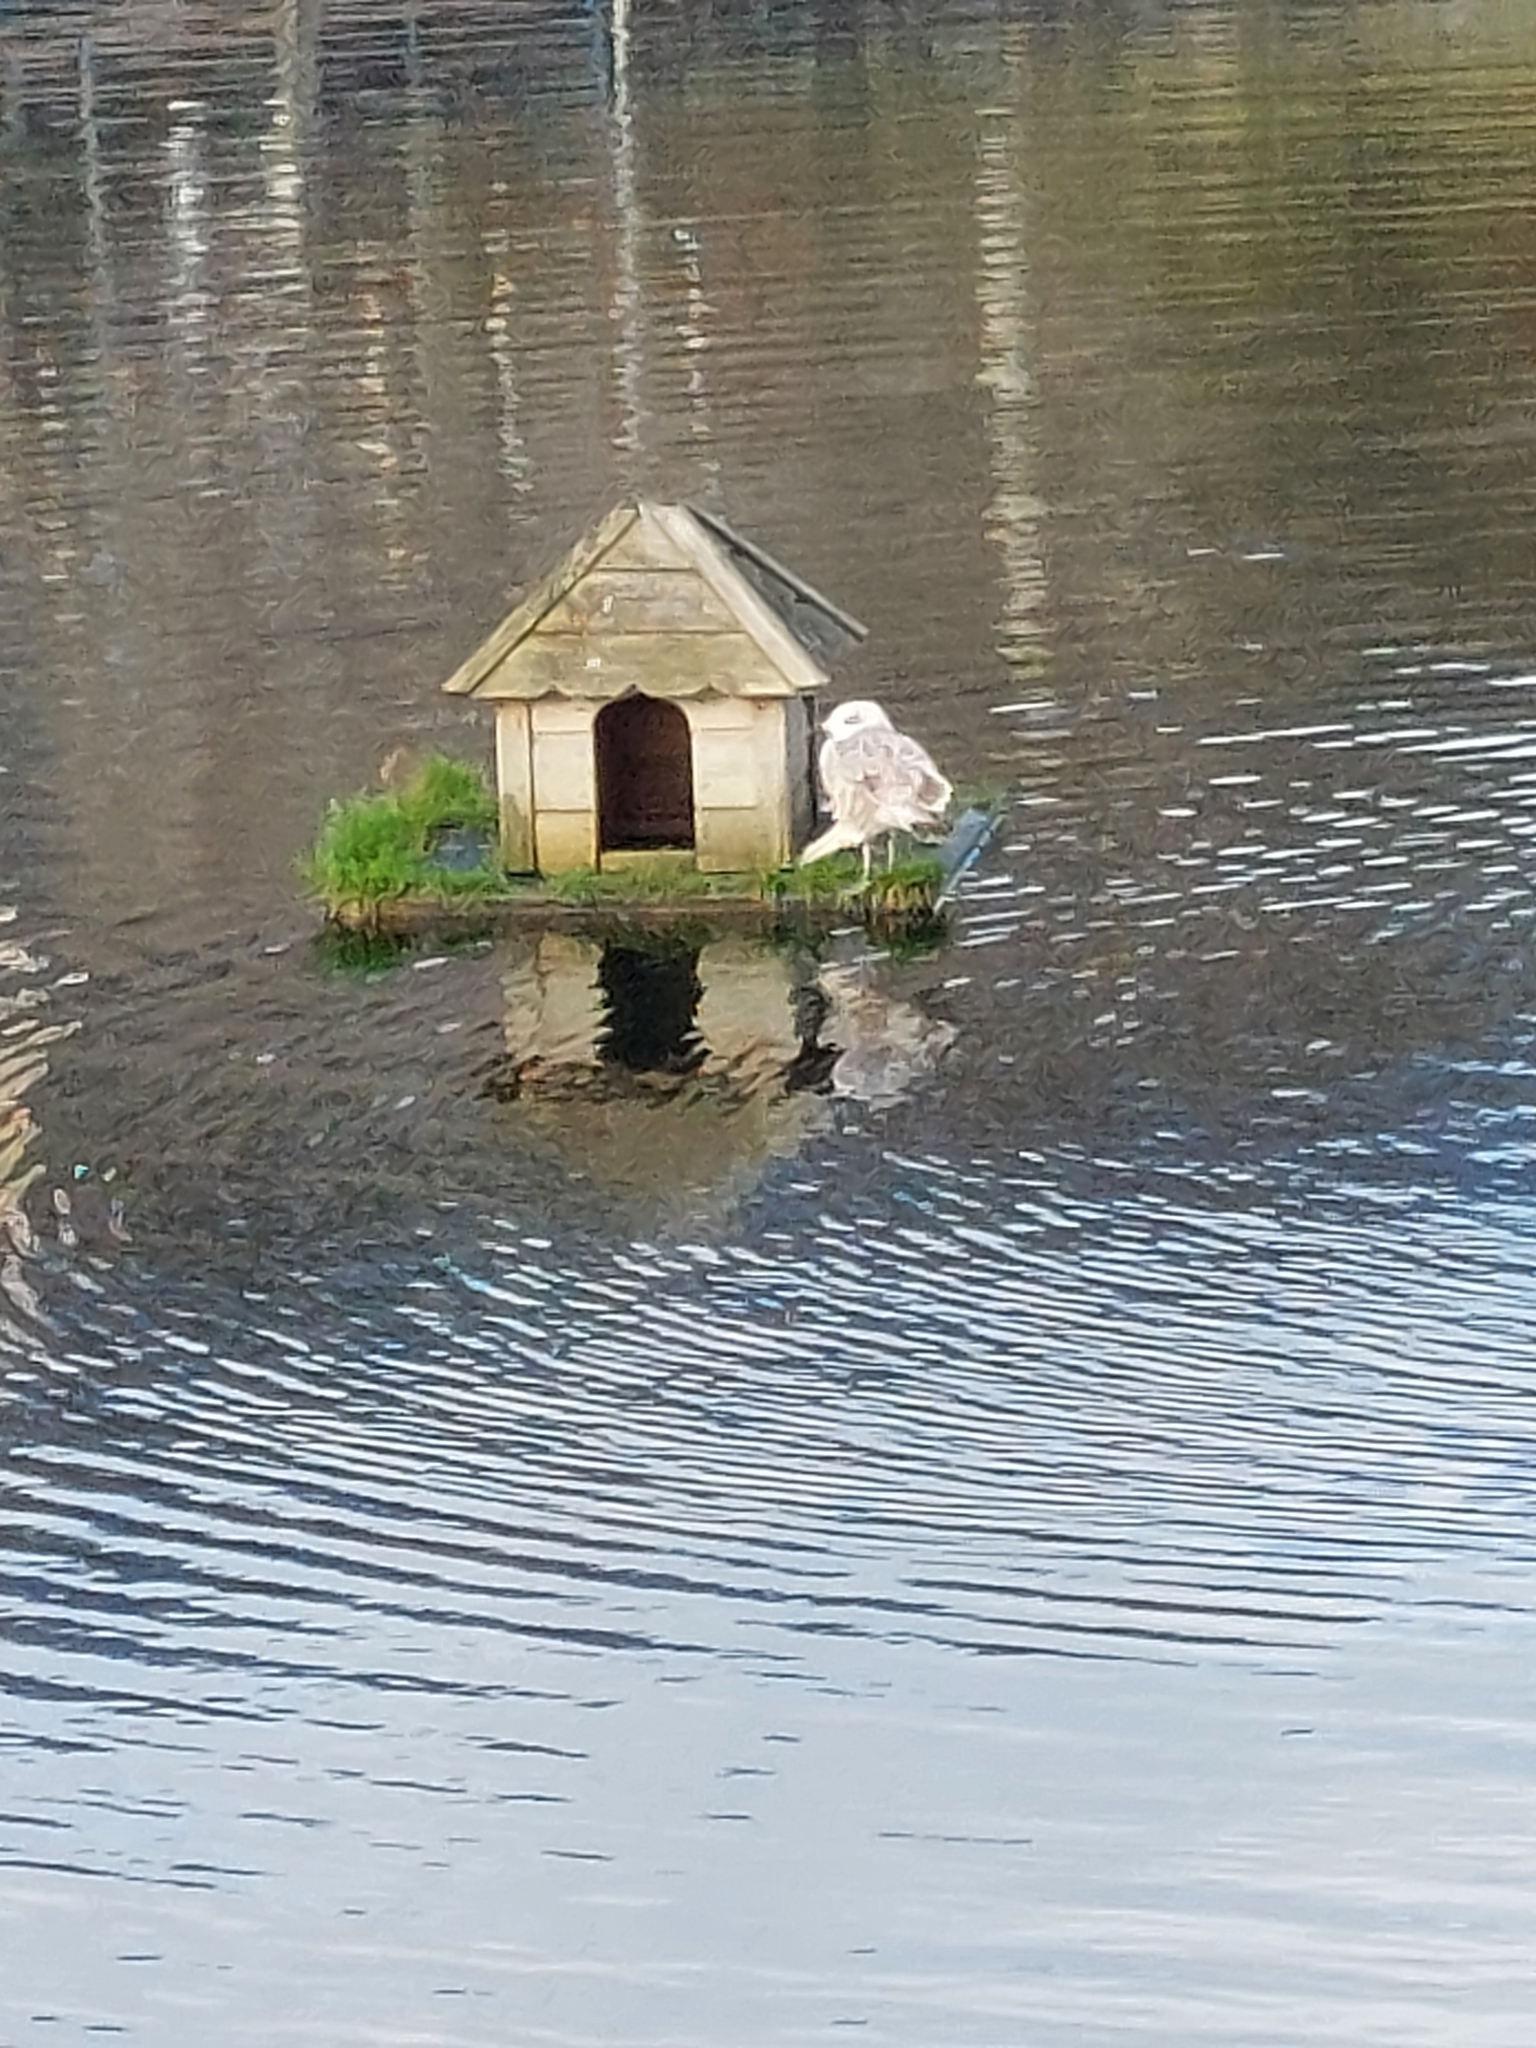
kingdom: Animalia
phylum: Chordata
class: Aves
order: Charadriiformes
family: Laridae
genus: Larus
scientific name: Larus
